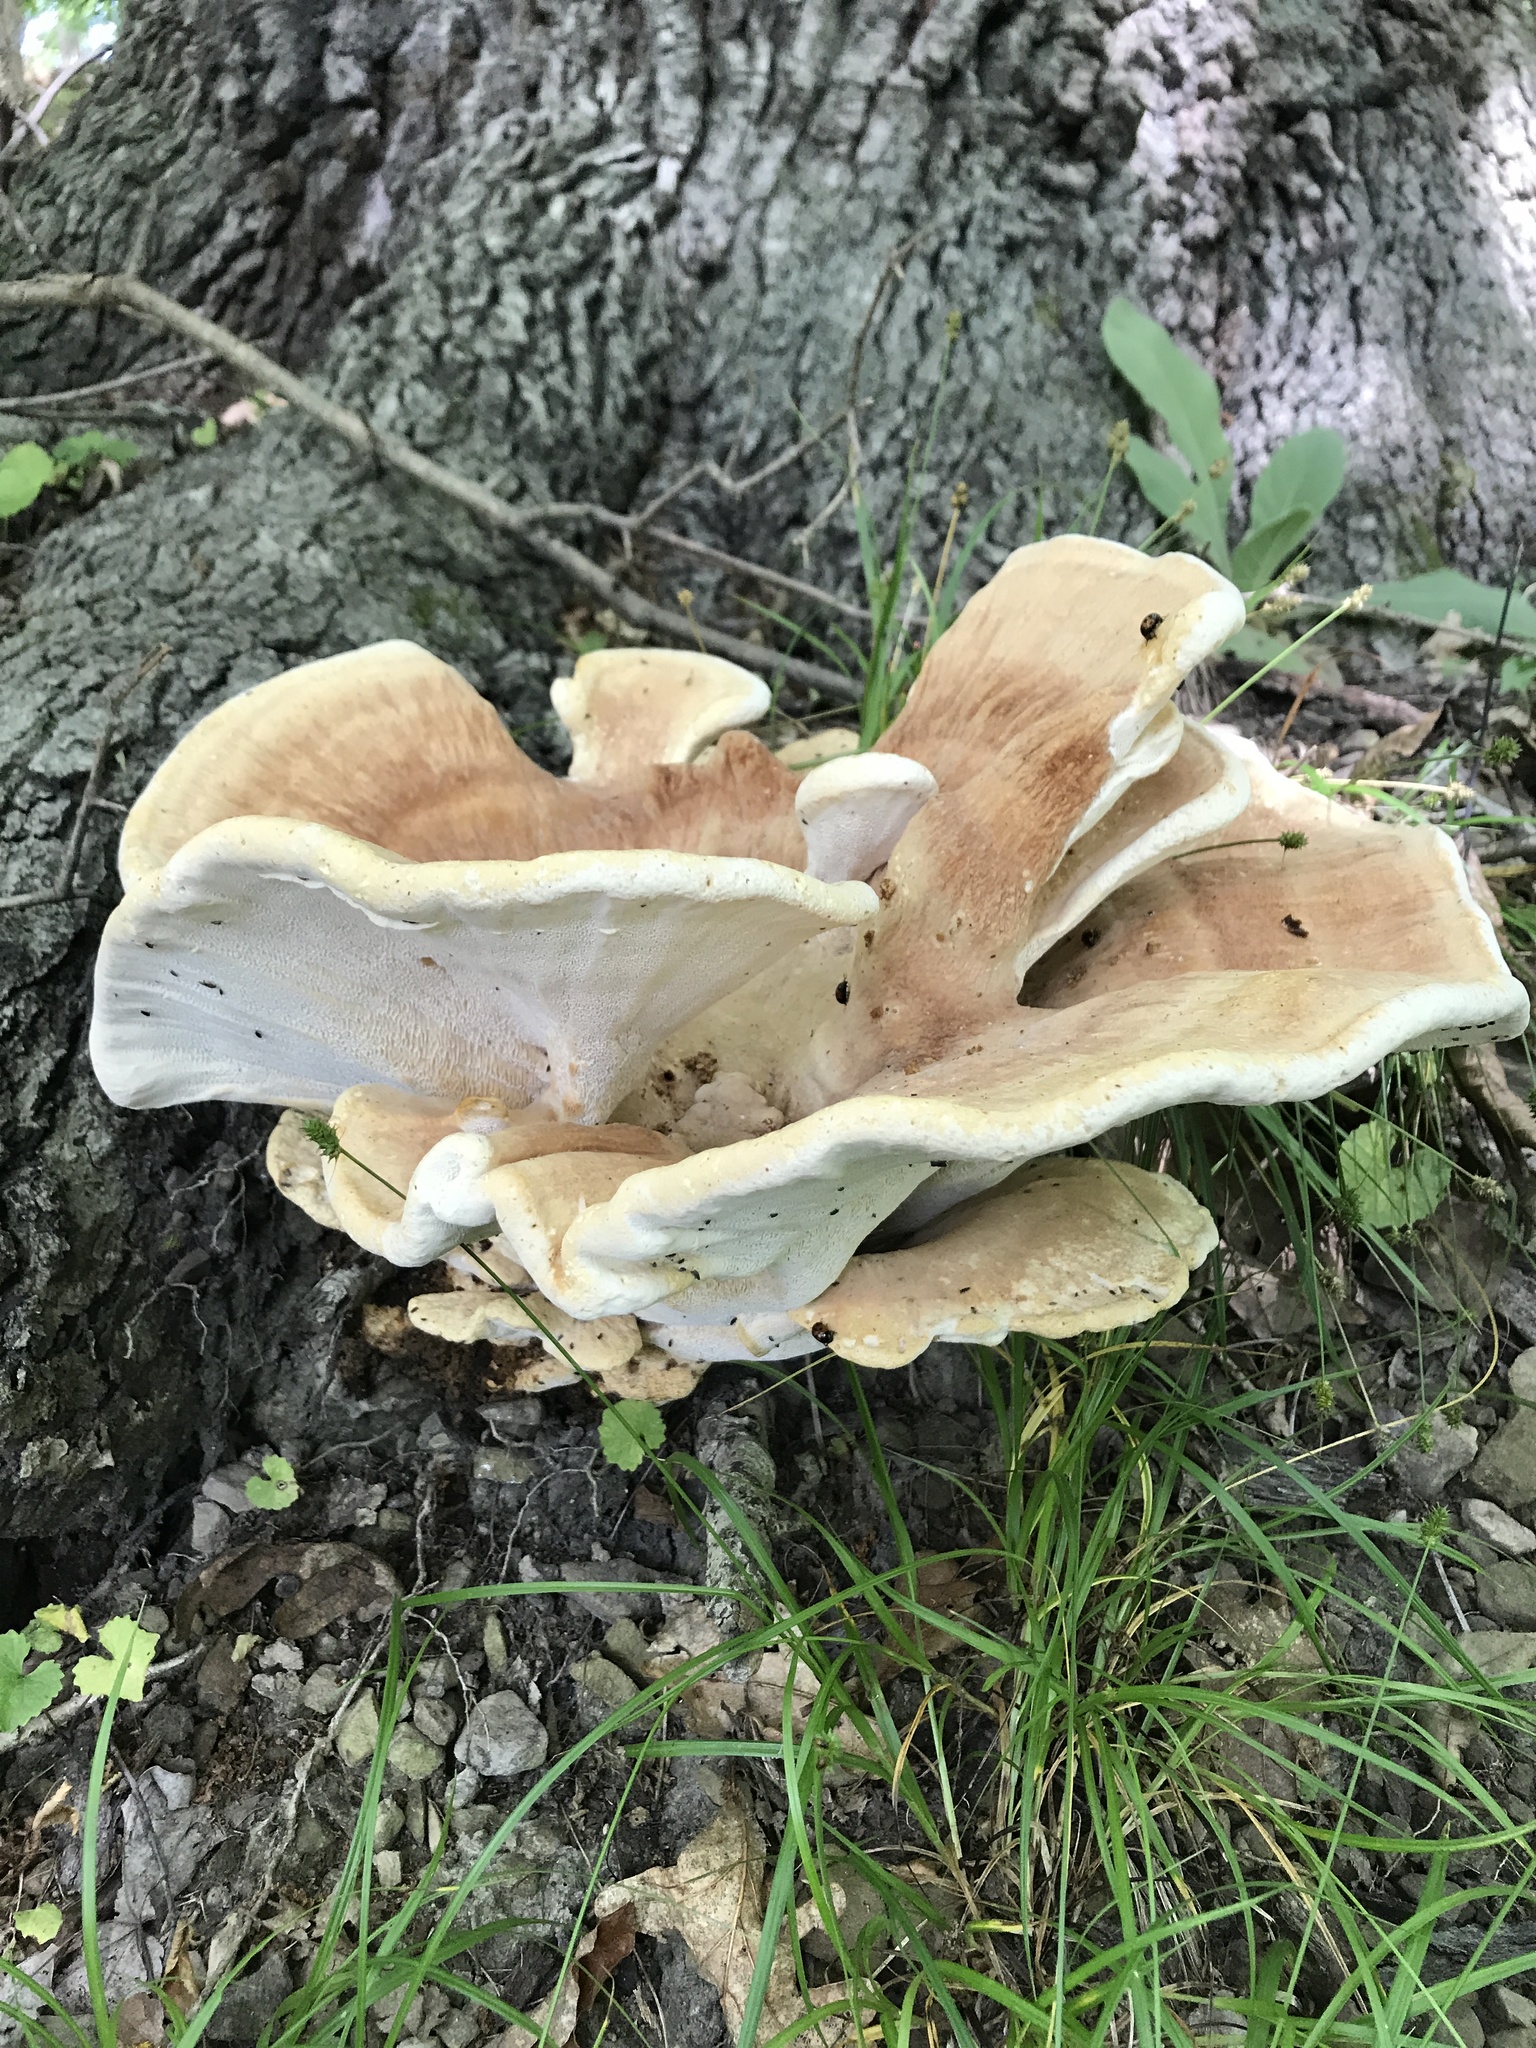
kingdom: Fungi
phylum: Basidiomycota
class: Agaricomycetes
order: Russulales
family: Bondarzewiaceae
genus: Bondarzewia
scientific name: Bondarzewia berkeleyi
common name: Berkeley's polypore
